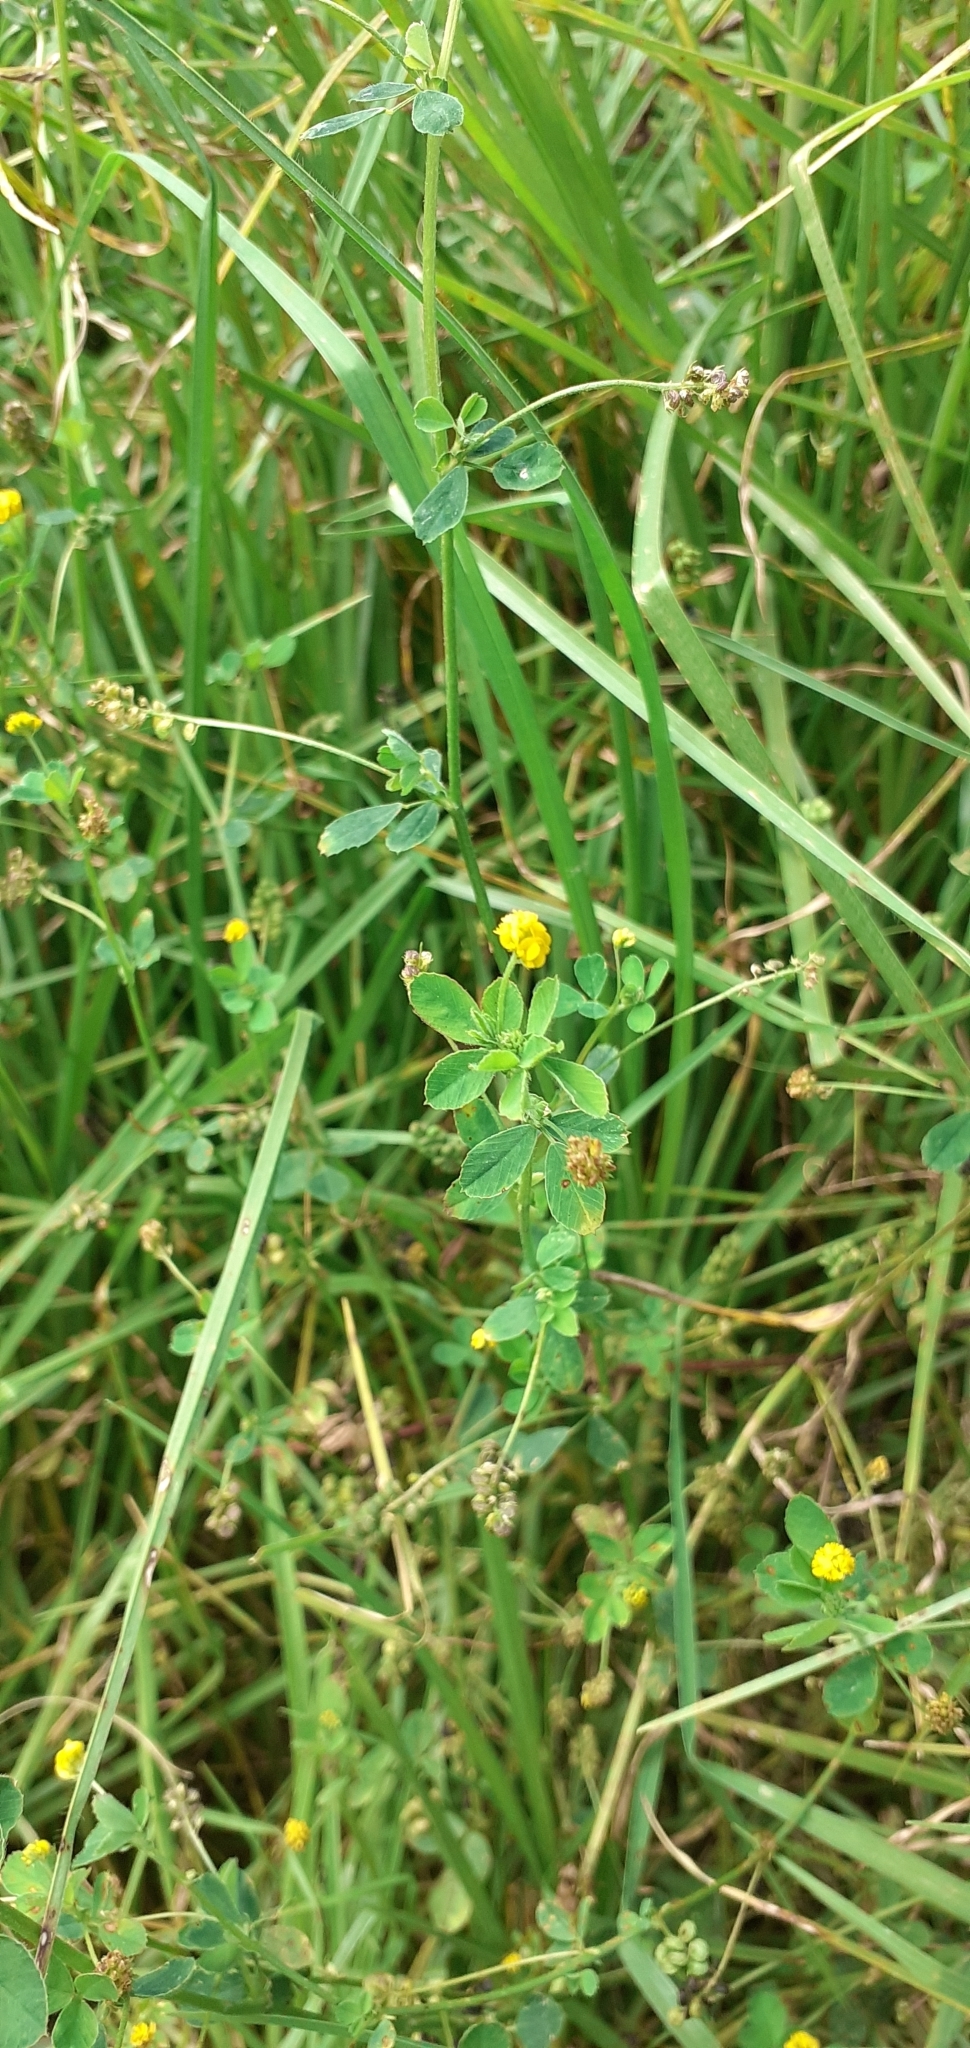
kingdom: Plantae
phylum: Tracheophyta
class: Magnoliopsida
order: Fabales
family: Fabaceae
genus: Medicago
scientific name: Medicago lupulina
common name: Black medick
